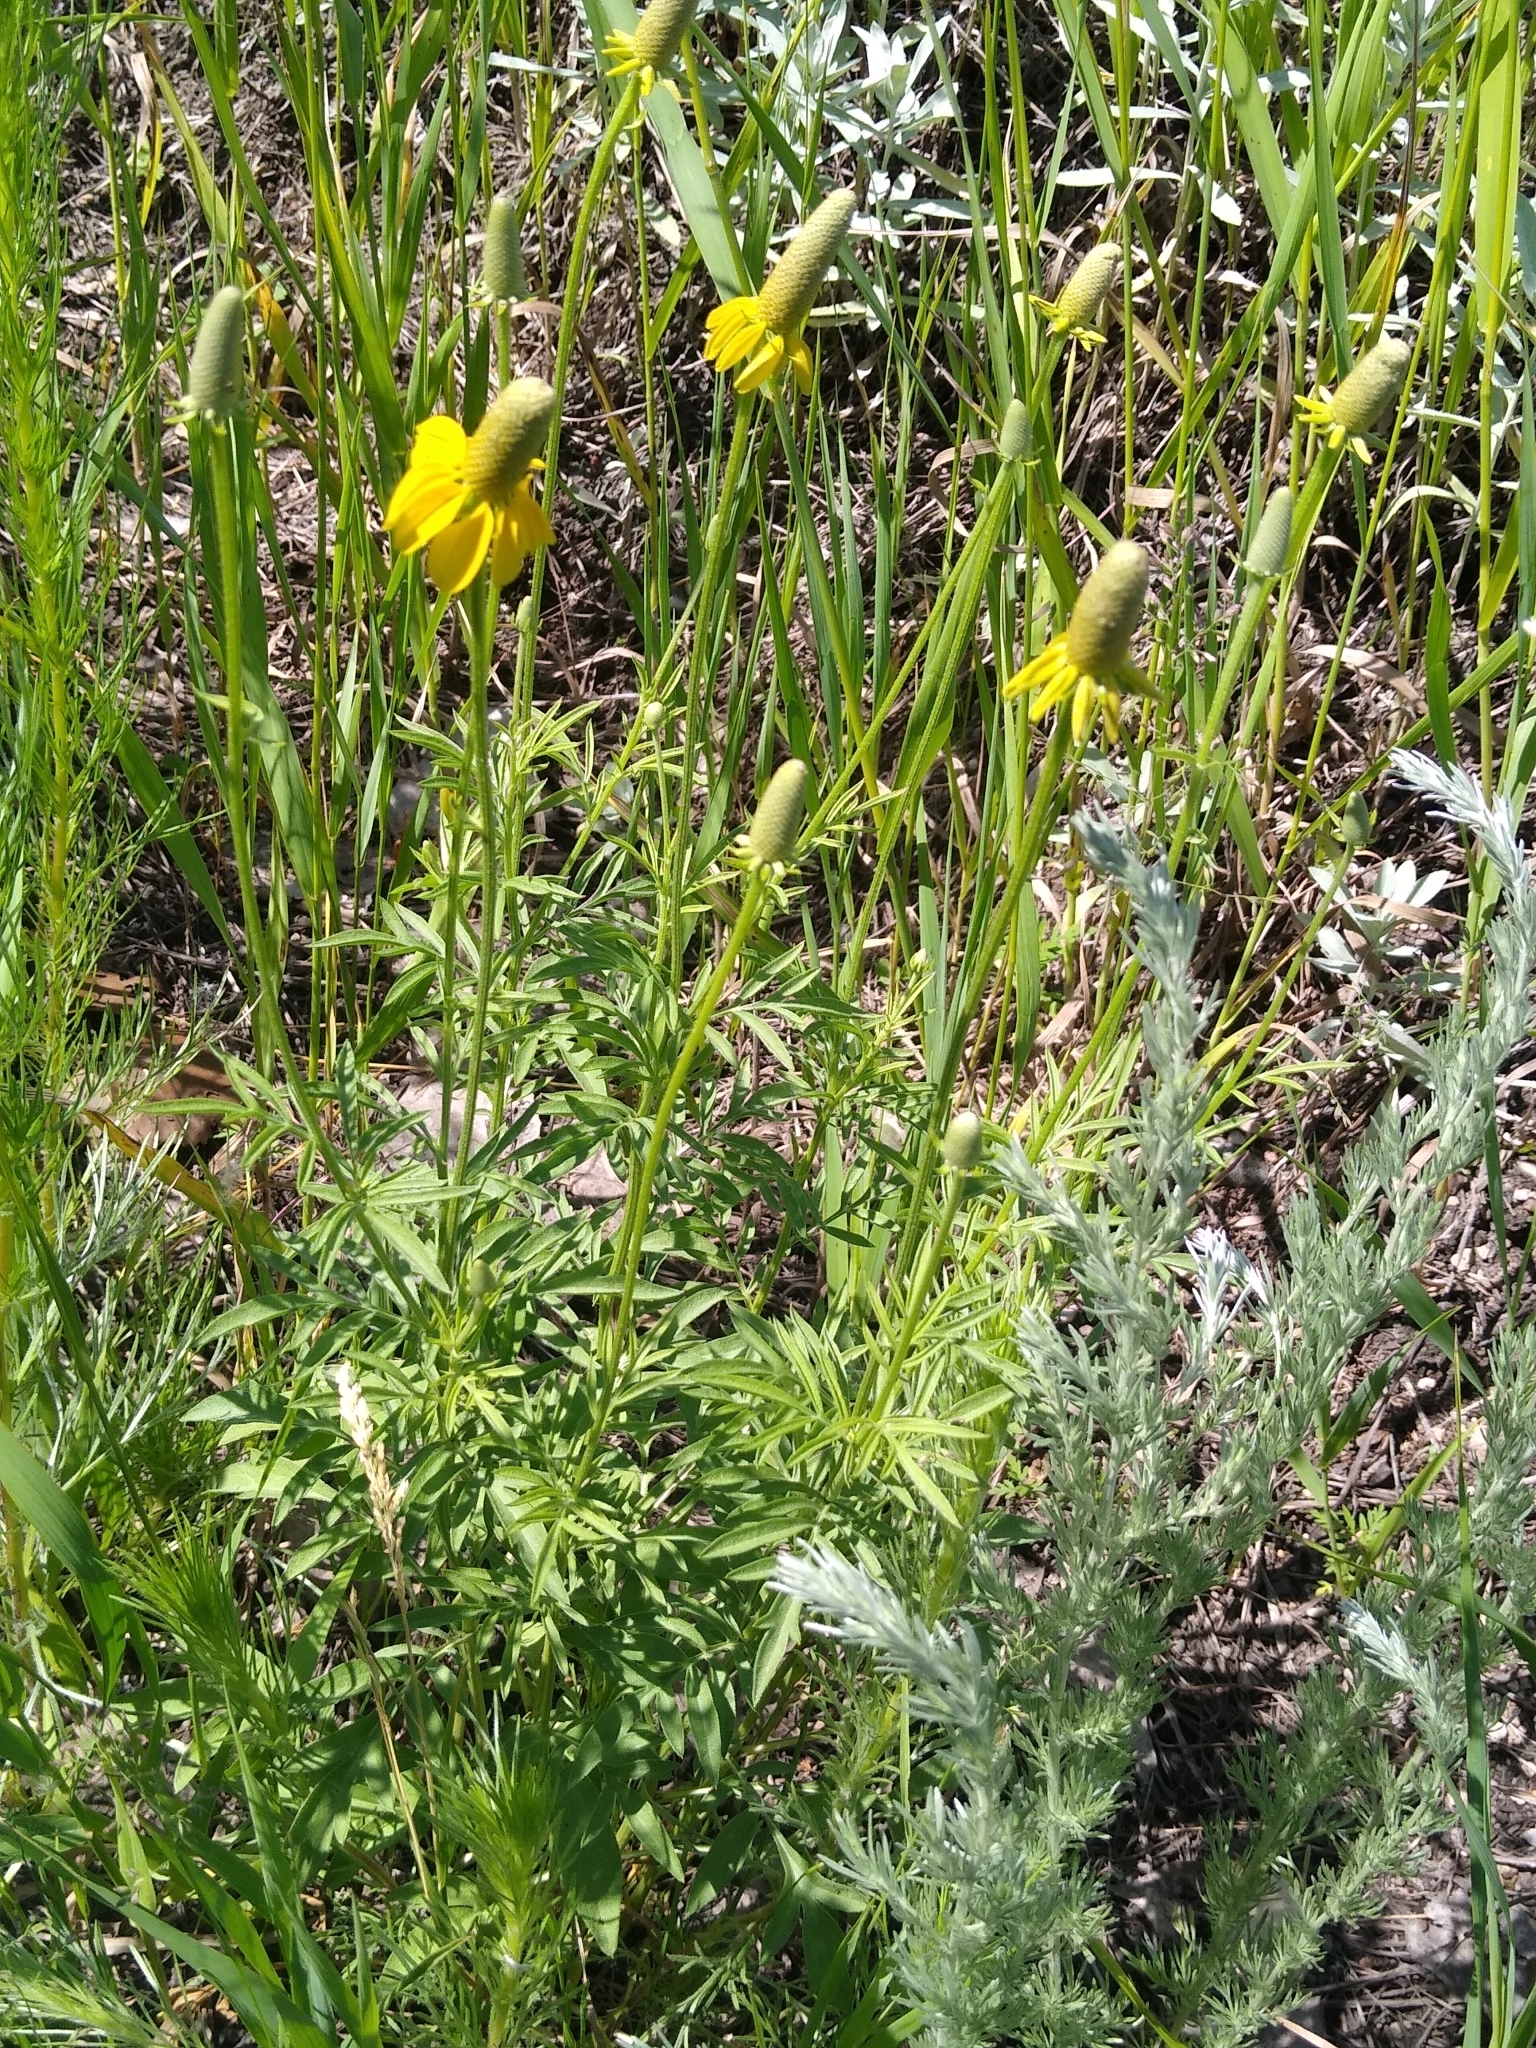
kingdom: Plantae
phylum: Tracheophyta
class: Magnoliopsida
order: Asterales
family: Asteraceae
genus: Ratibida
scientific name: Ratibida columnifera
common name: Prairie coneflower
